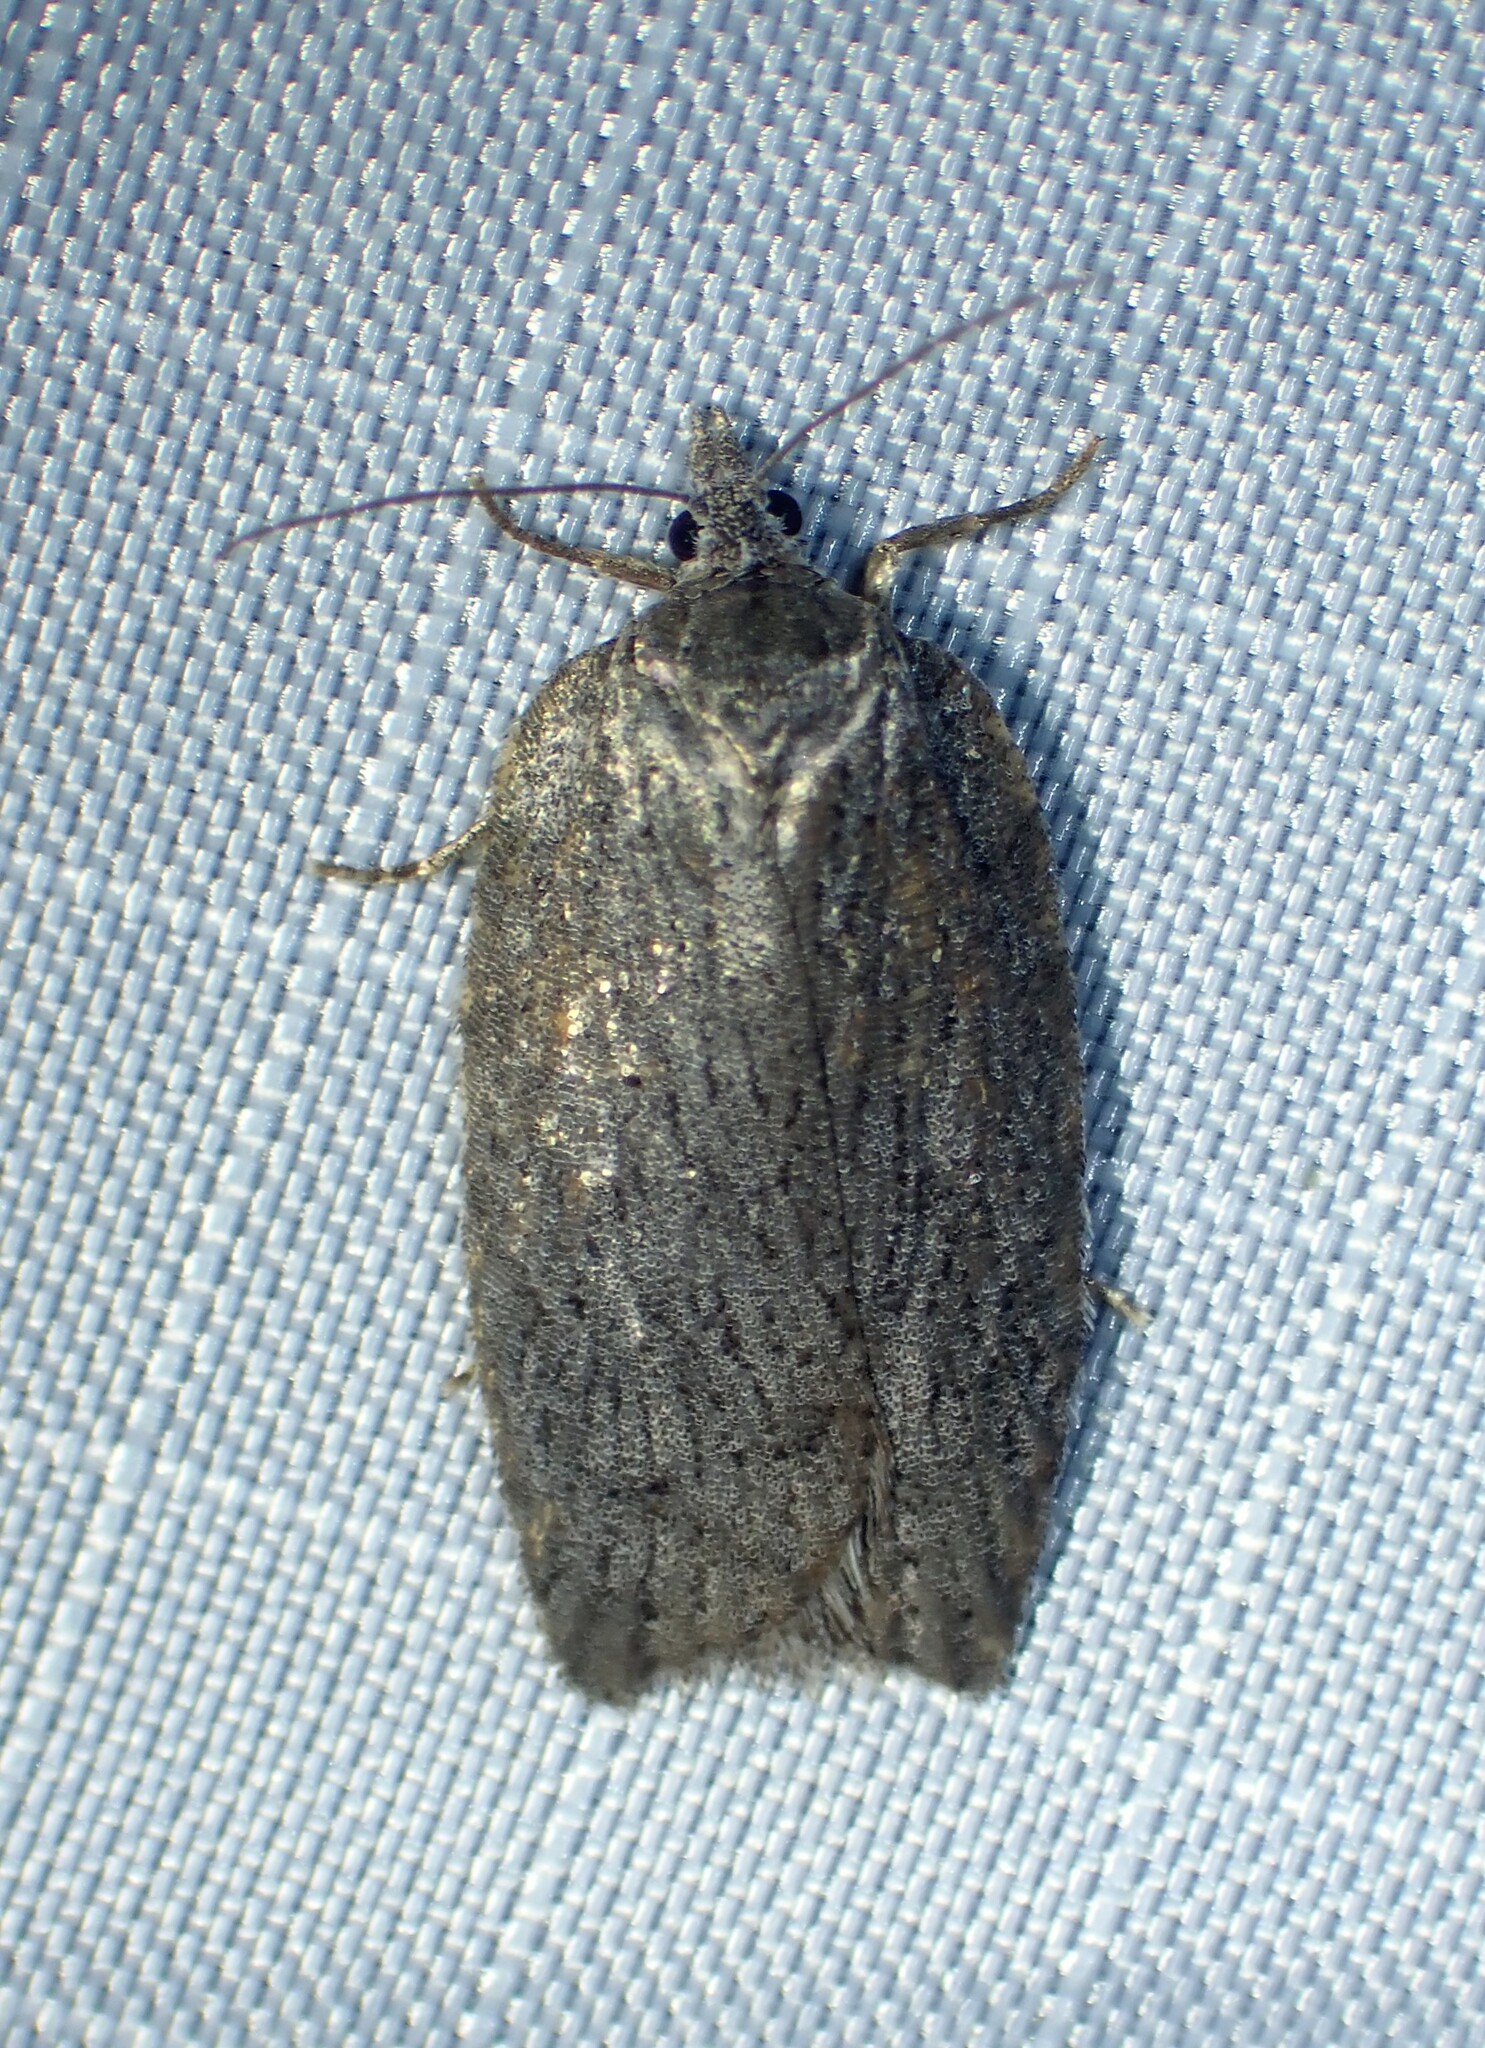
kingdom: Animalia
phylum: Arthropoda
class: Insecta
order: Lepidoptera
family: Tortricidae
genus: Acleris
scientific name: Acleris maximana
